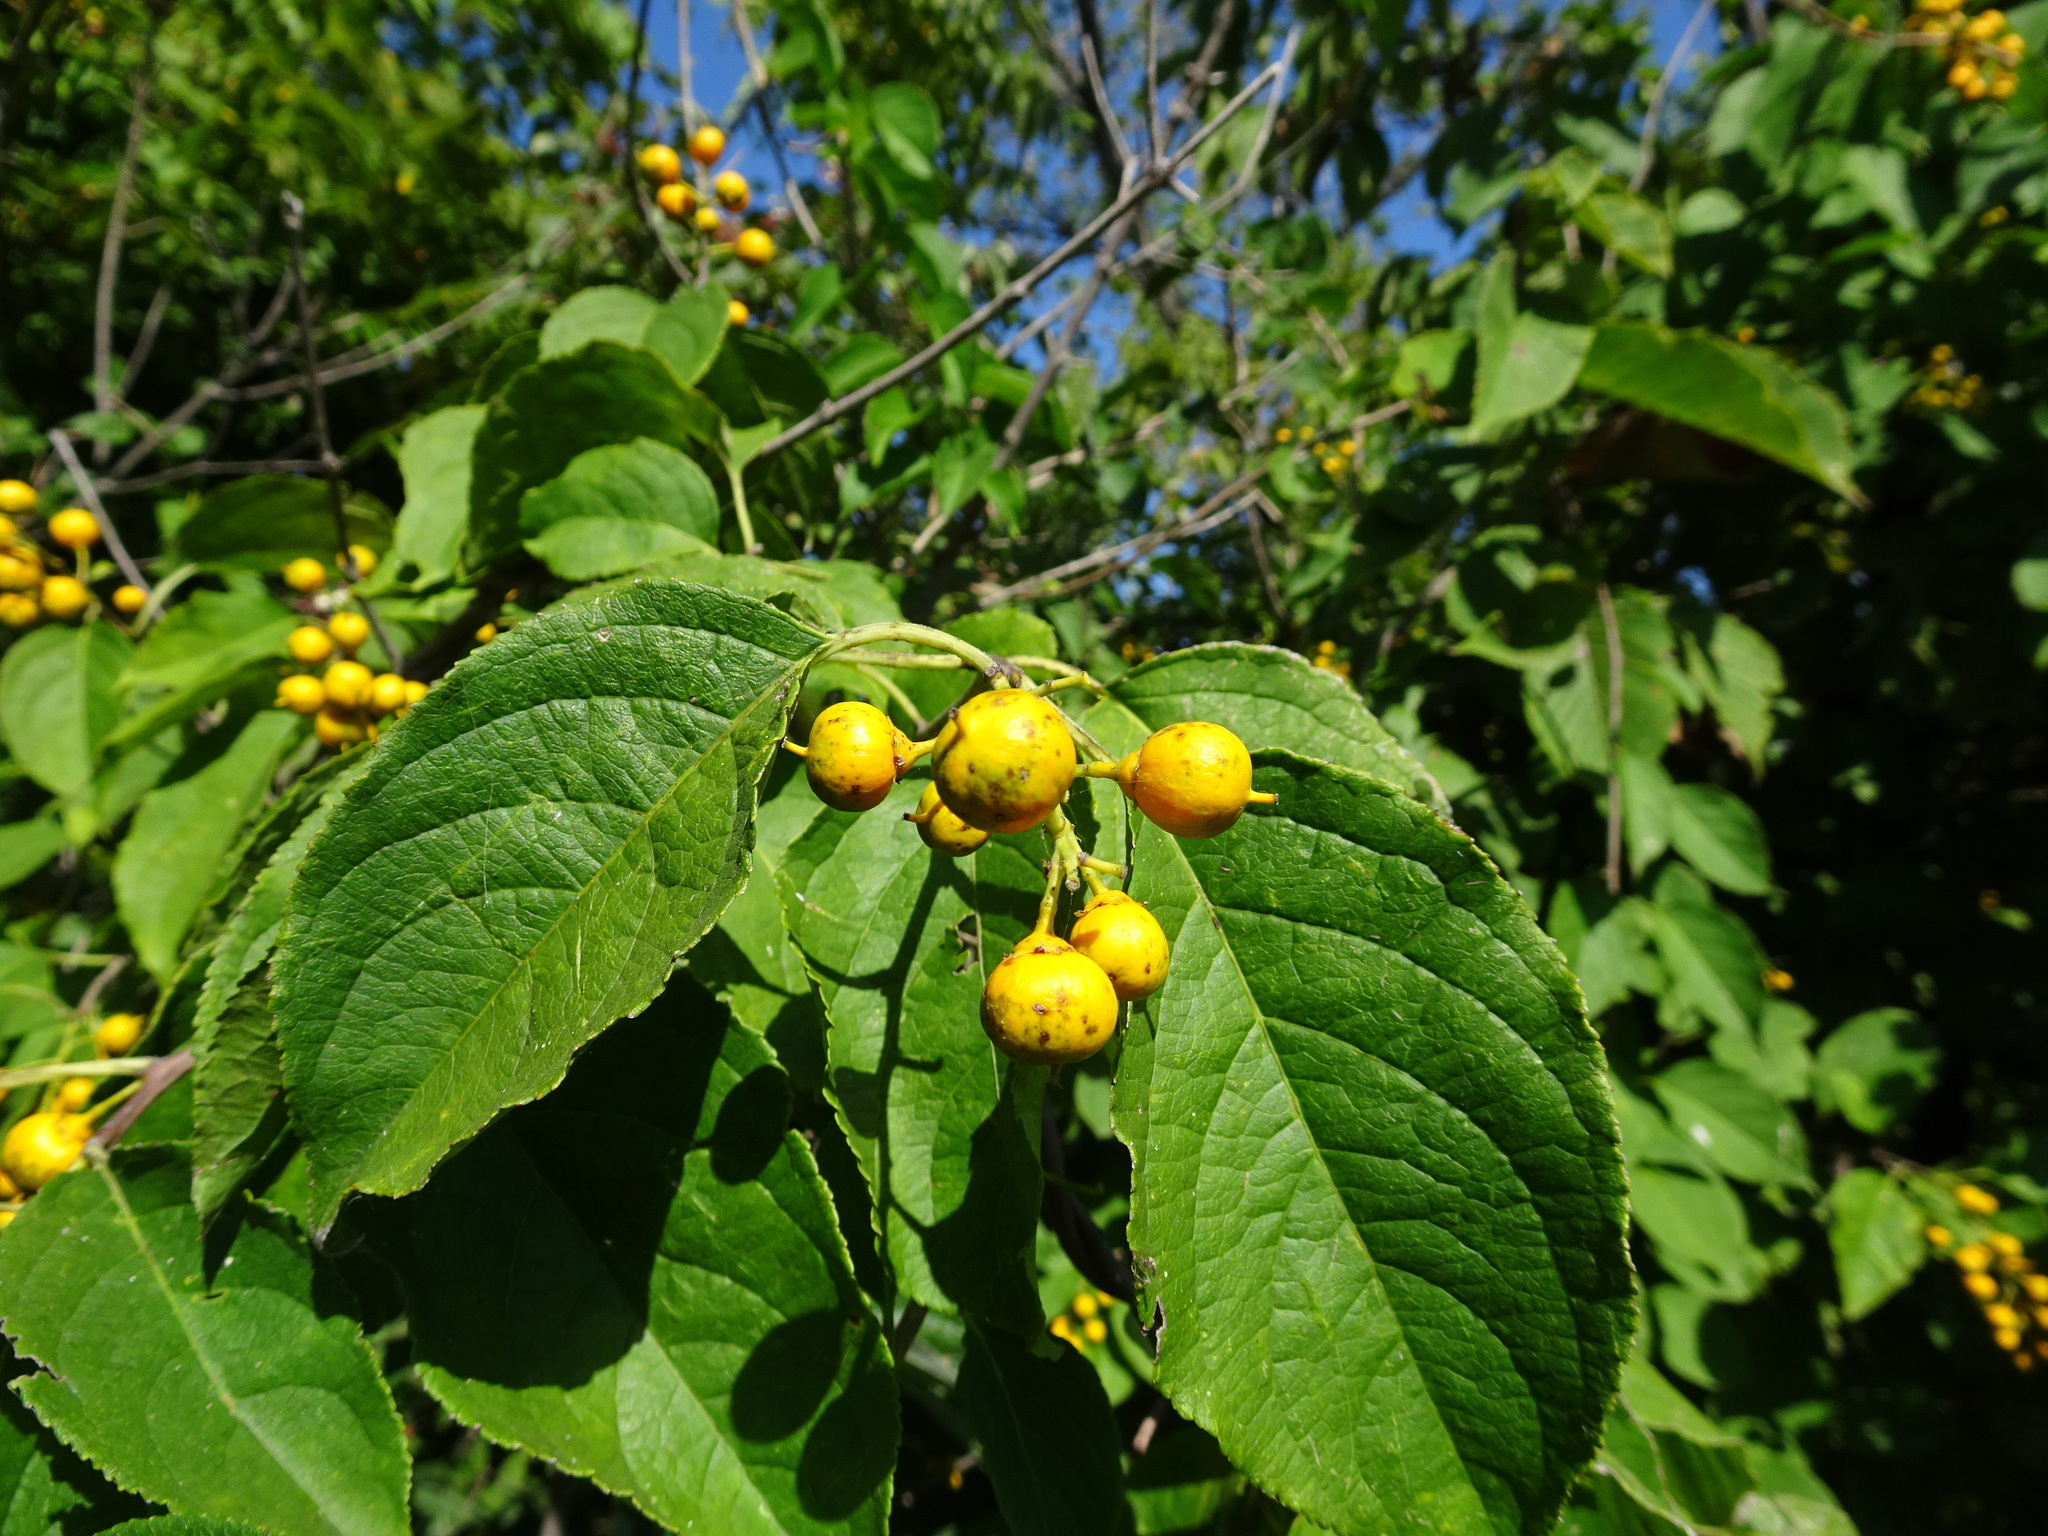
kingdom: Plantae
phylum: Tracheophyta
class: Magnoliopsida
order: Celastrales
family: Celastraceae
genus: Celastrus
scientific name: Celastrus scandens
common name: American bittersweet
